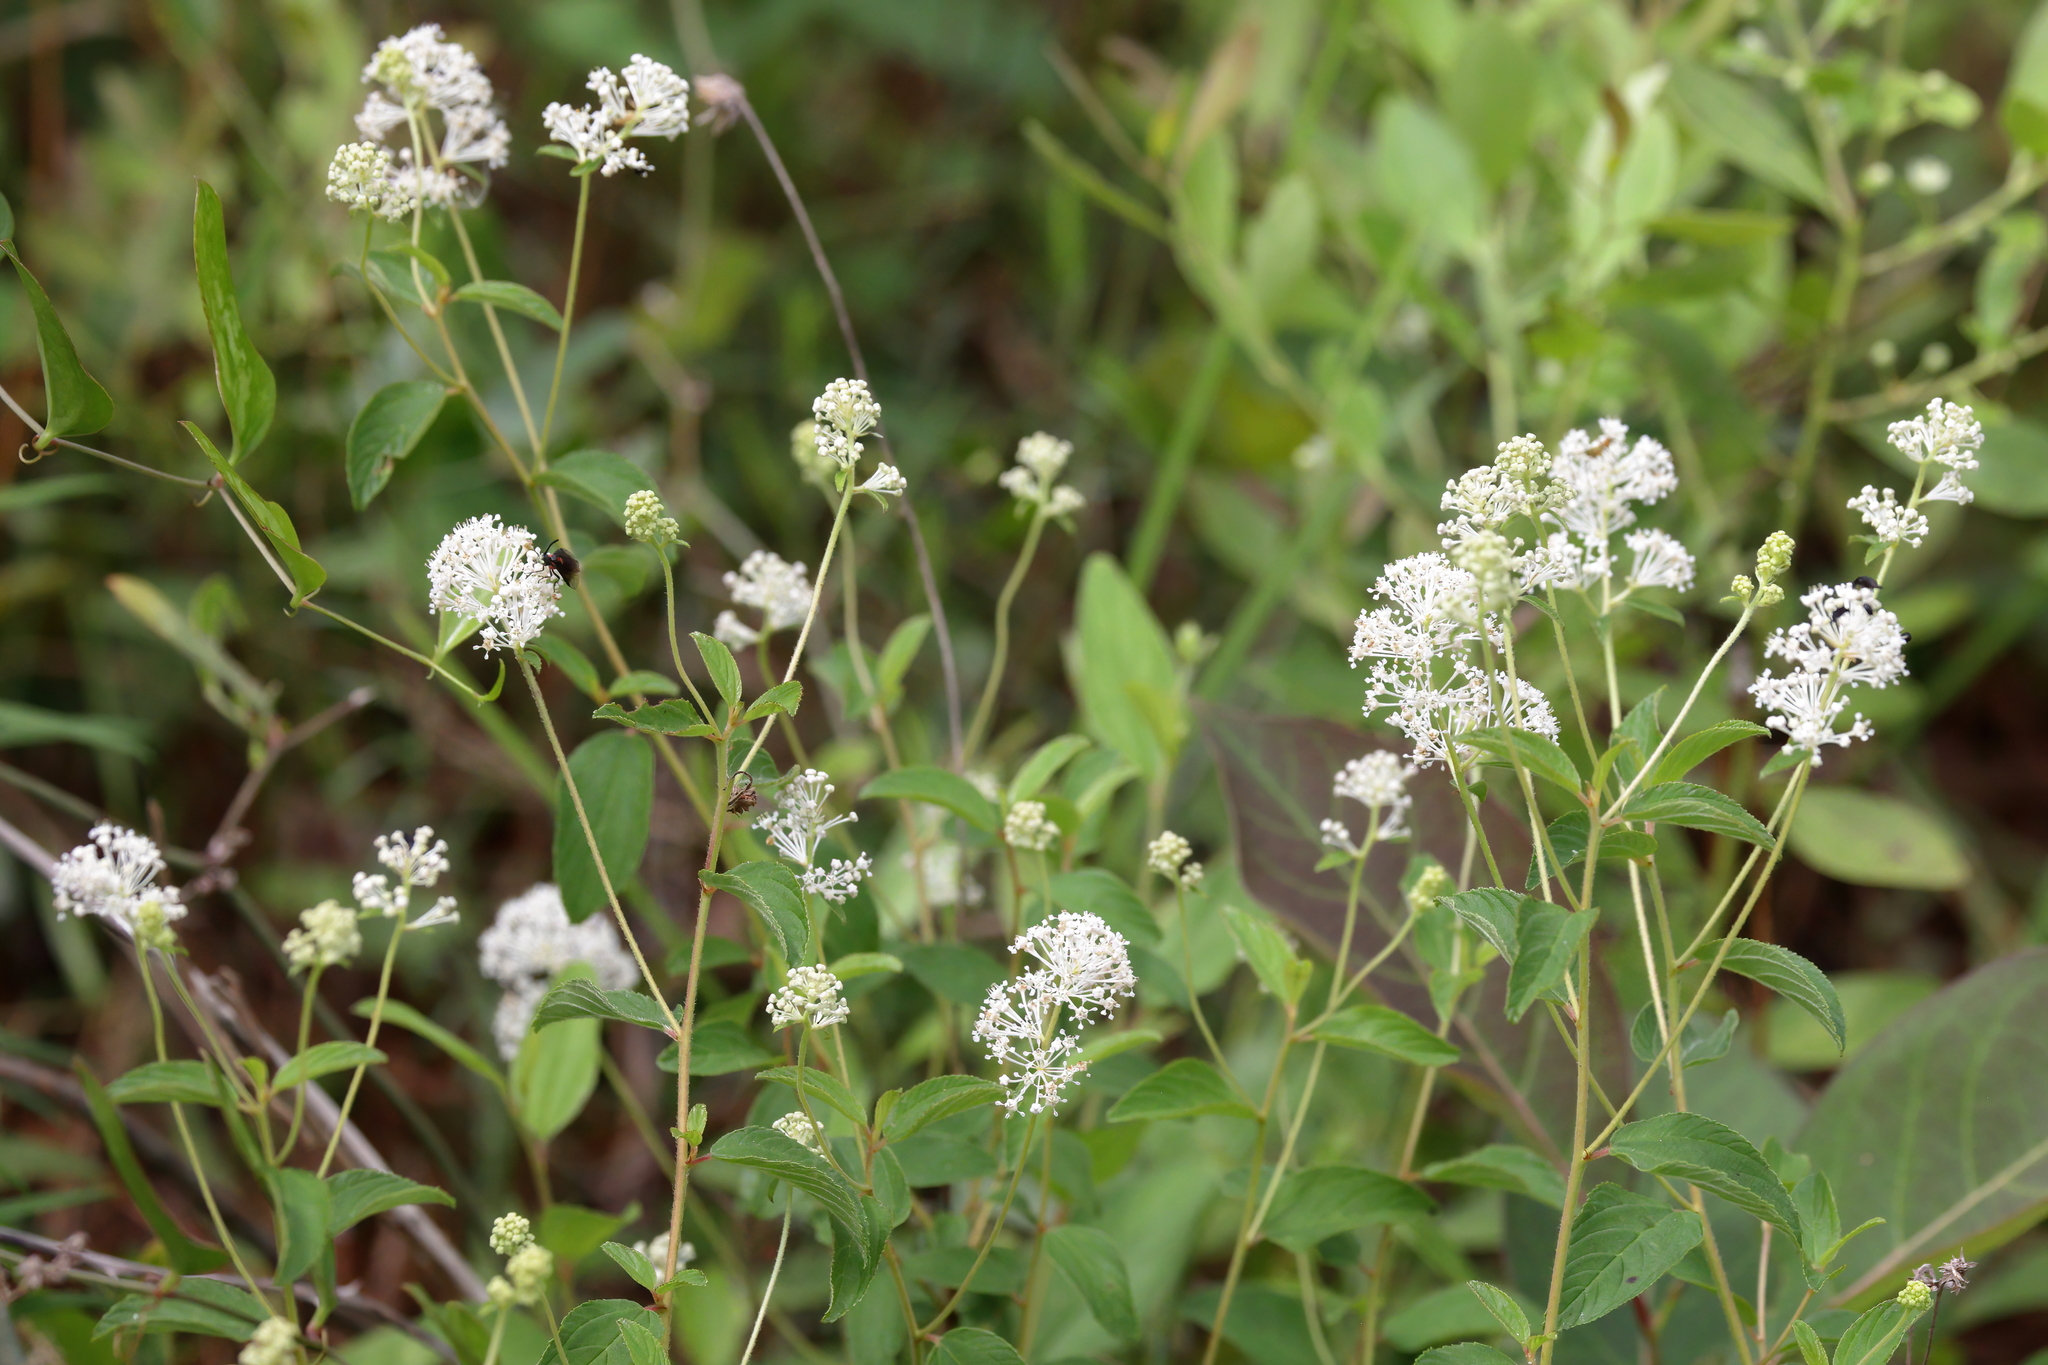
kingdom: Plantae
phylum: Tracheophyta
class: Magnoliopsida
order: Rosales
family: Rhamnaceae
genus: Ceanothus
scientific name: Ceanothus americanus
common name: Redroot
